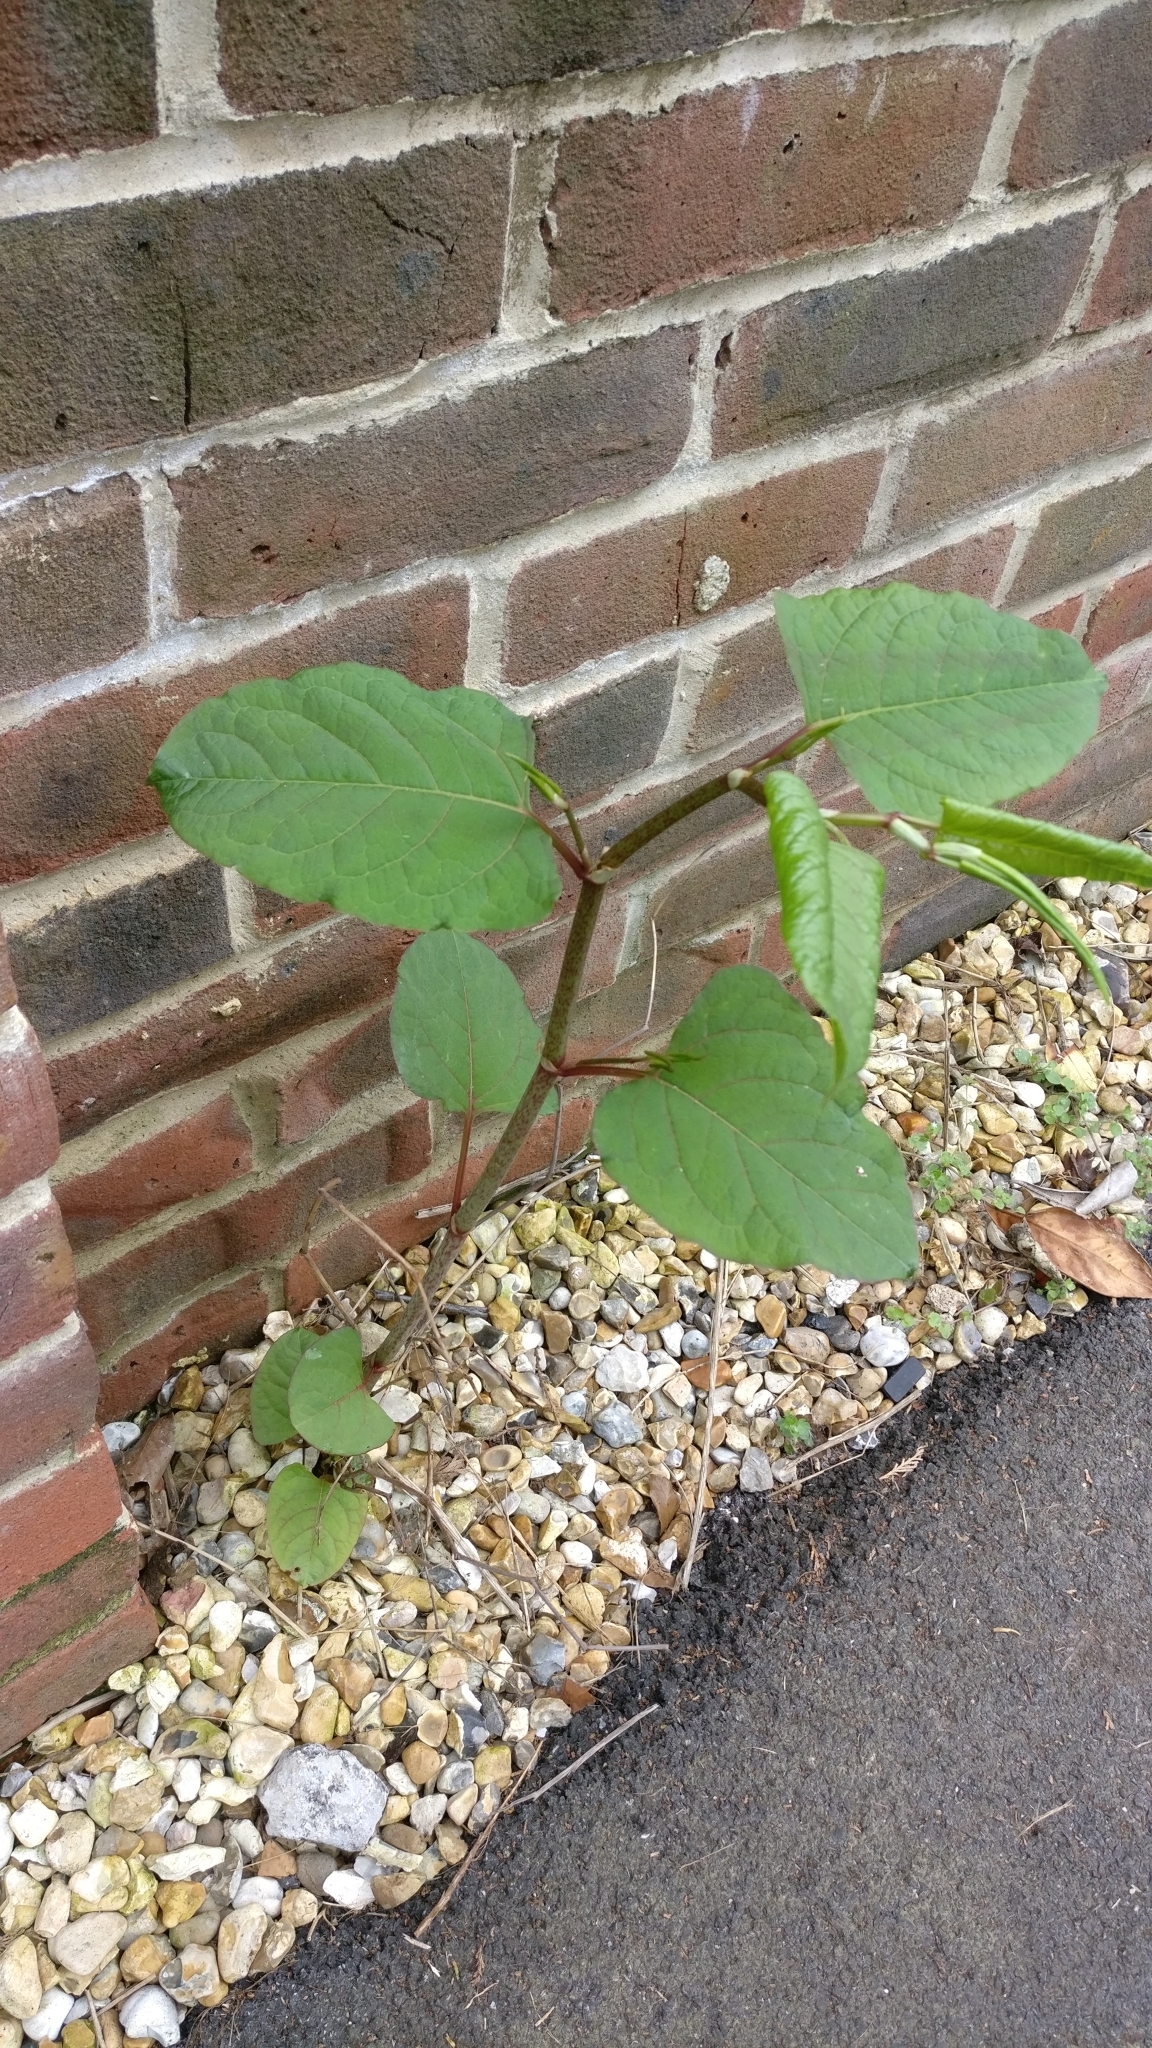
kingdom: Plantae
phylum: Tracheophyta
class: Magnoliopsida
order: Caryophyllales
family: Polygonaceae
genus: Reynoutria
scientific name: Reynoutria japonica
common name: Japanese knotweed
